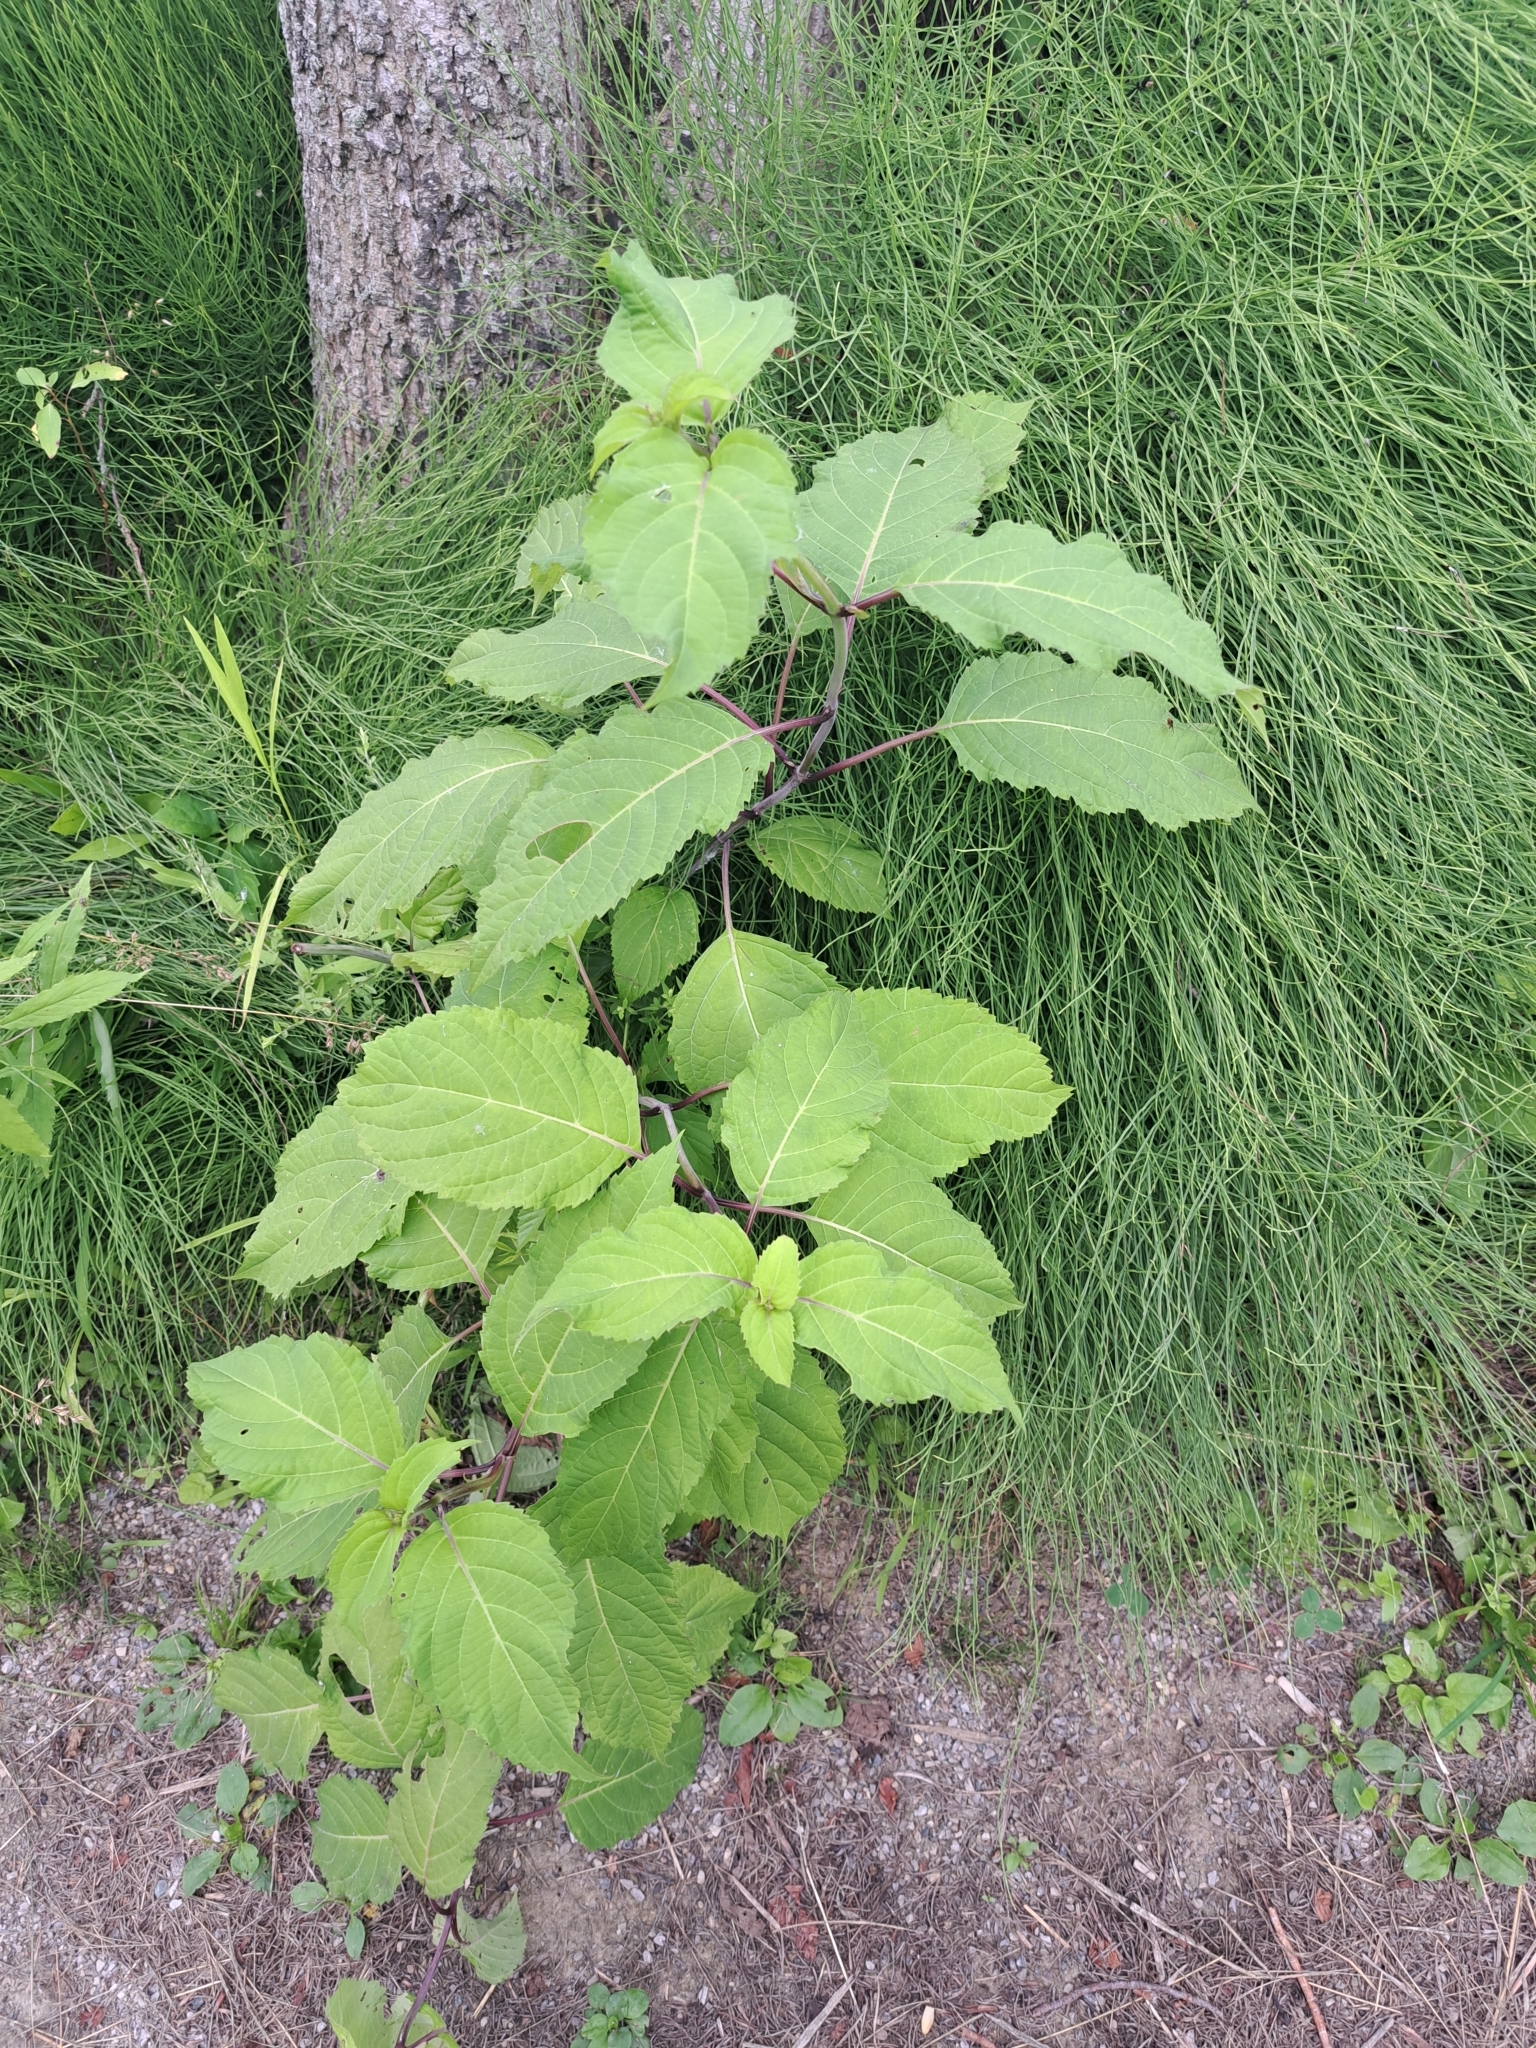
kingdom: Plantae
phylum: Tracheophyta
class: Magnoliopsida
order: Lamiales
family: Lamiaceae
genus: Collinsonia
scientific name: Collinsonia canadensis
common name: Northern horsebalm
